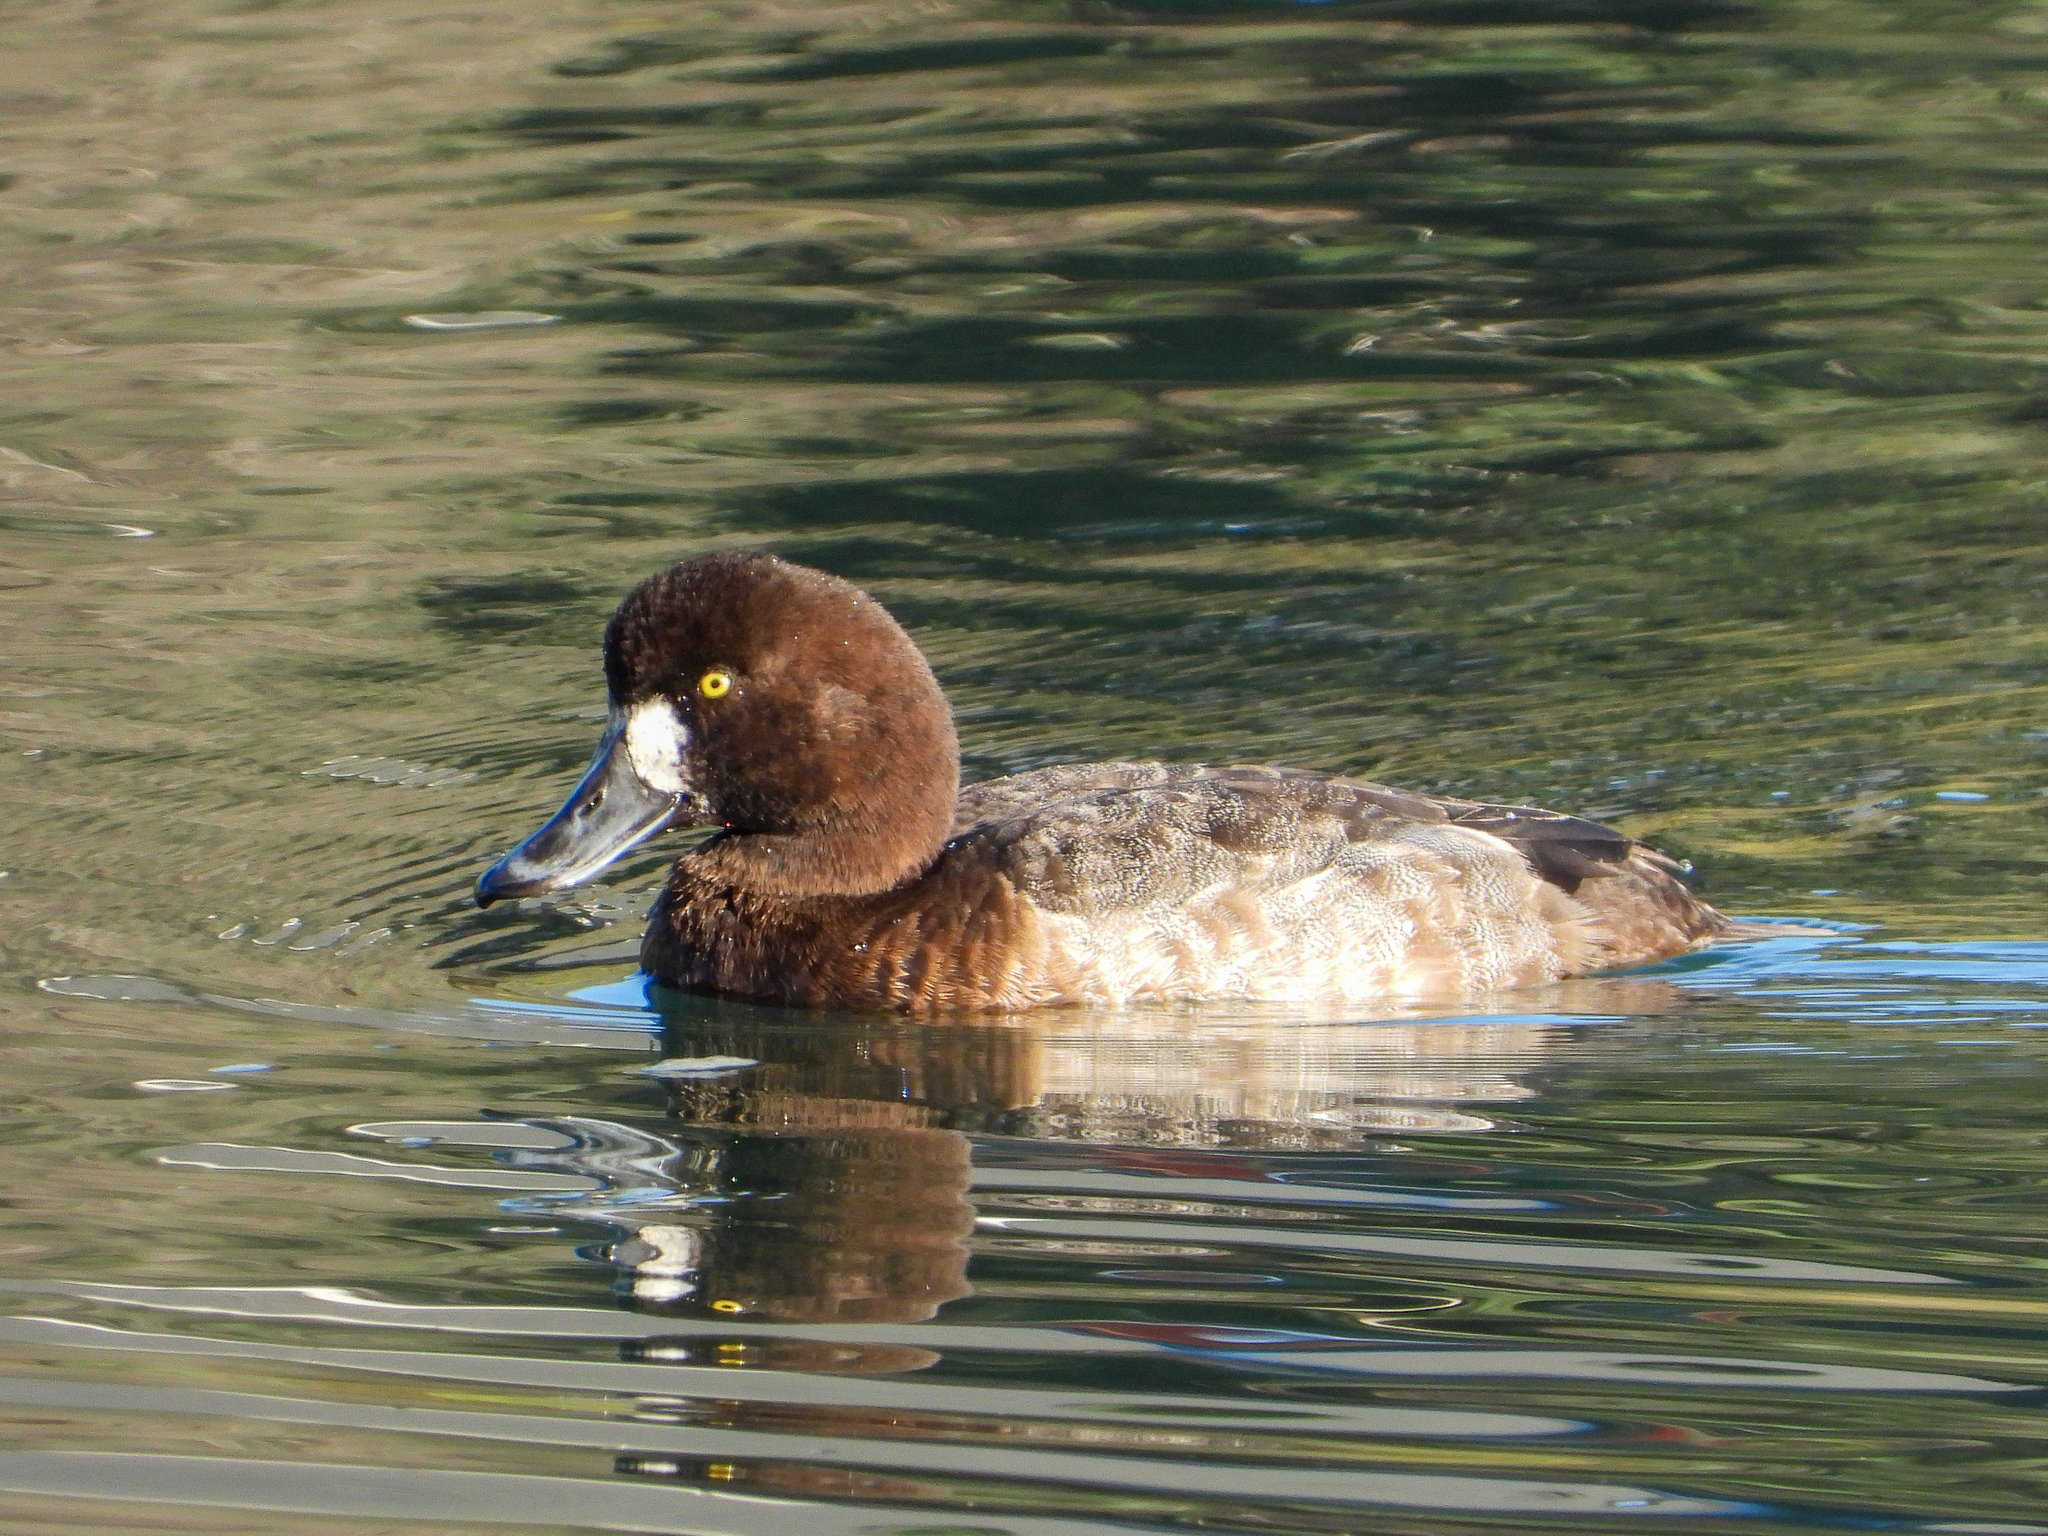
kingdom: Animalia
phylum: Chordata
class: Aves
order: Anseriformes
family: Anatidae
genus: Aythya
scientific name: Aythya marila
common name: Greater scaup
